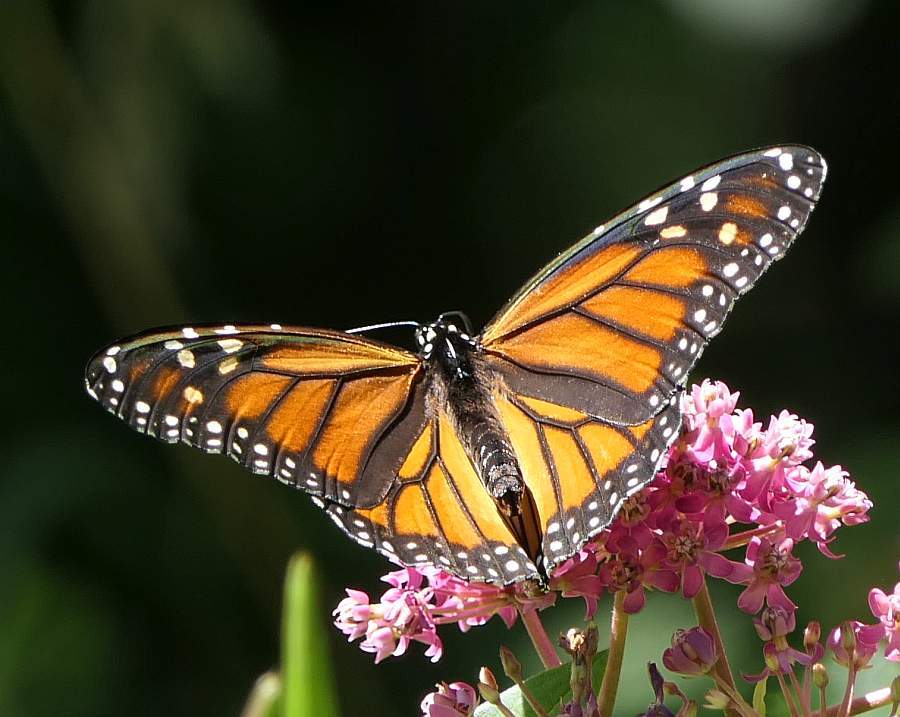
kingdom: Animalia
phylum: Arthropoda
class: Insecta
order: Lepidoptera
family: Nymphalidae
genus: Danaus
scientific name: Danaus plexippus
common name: Monarch
